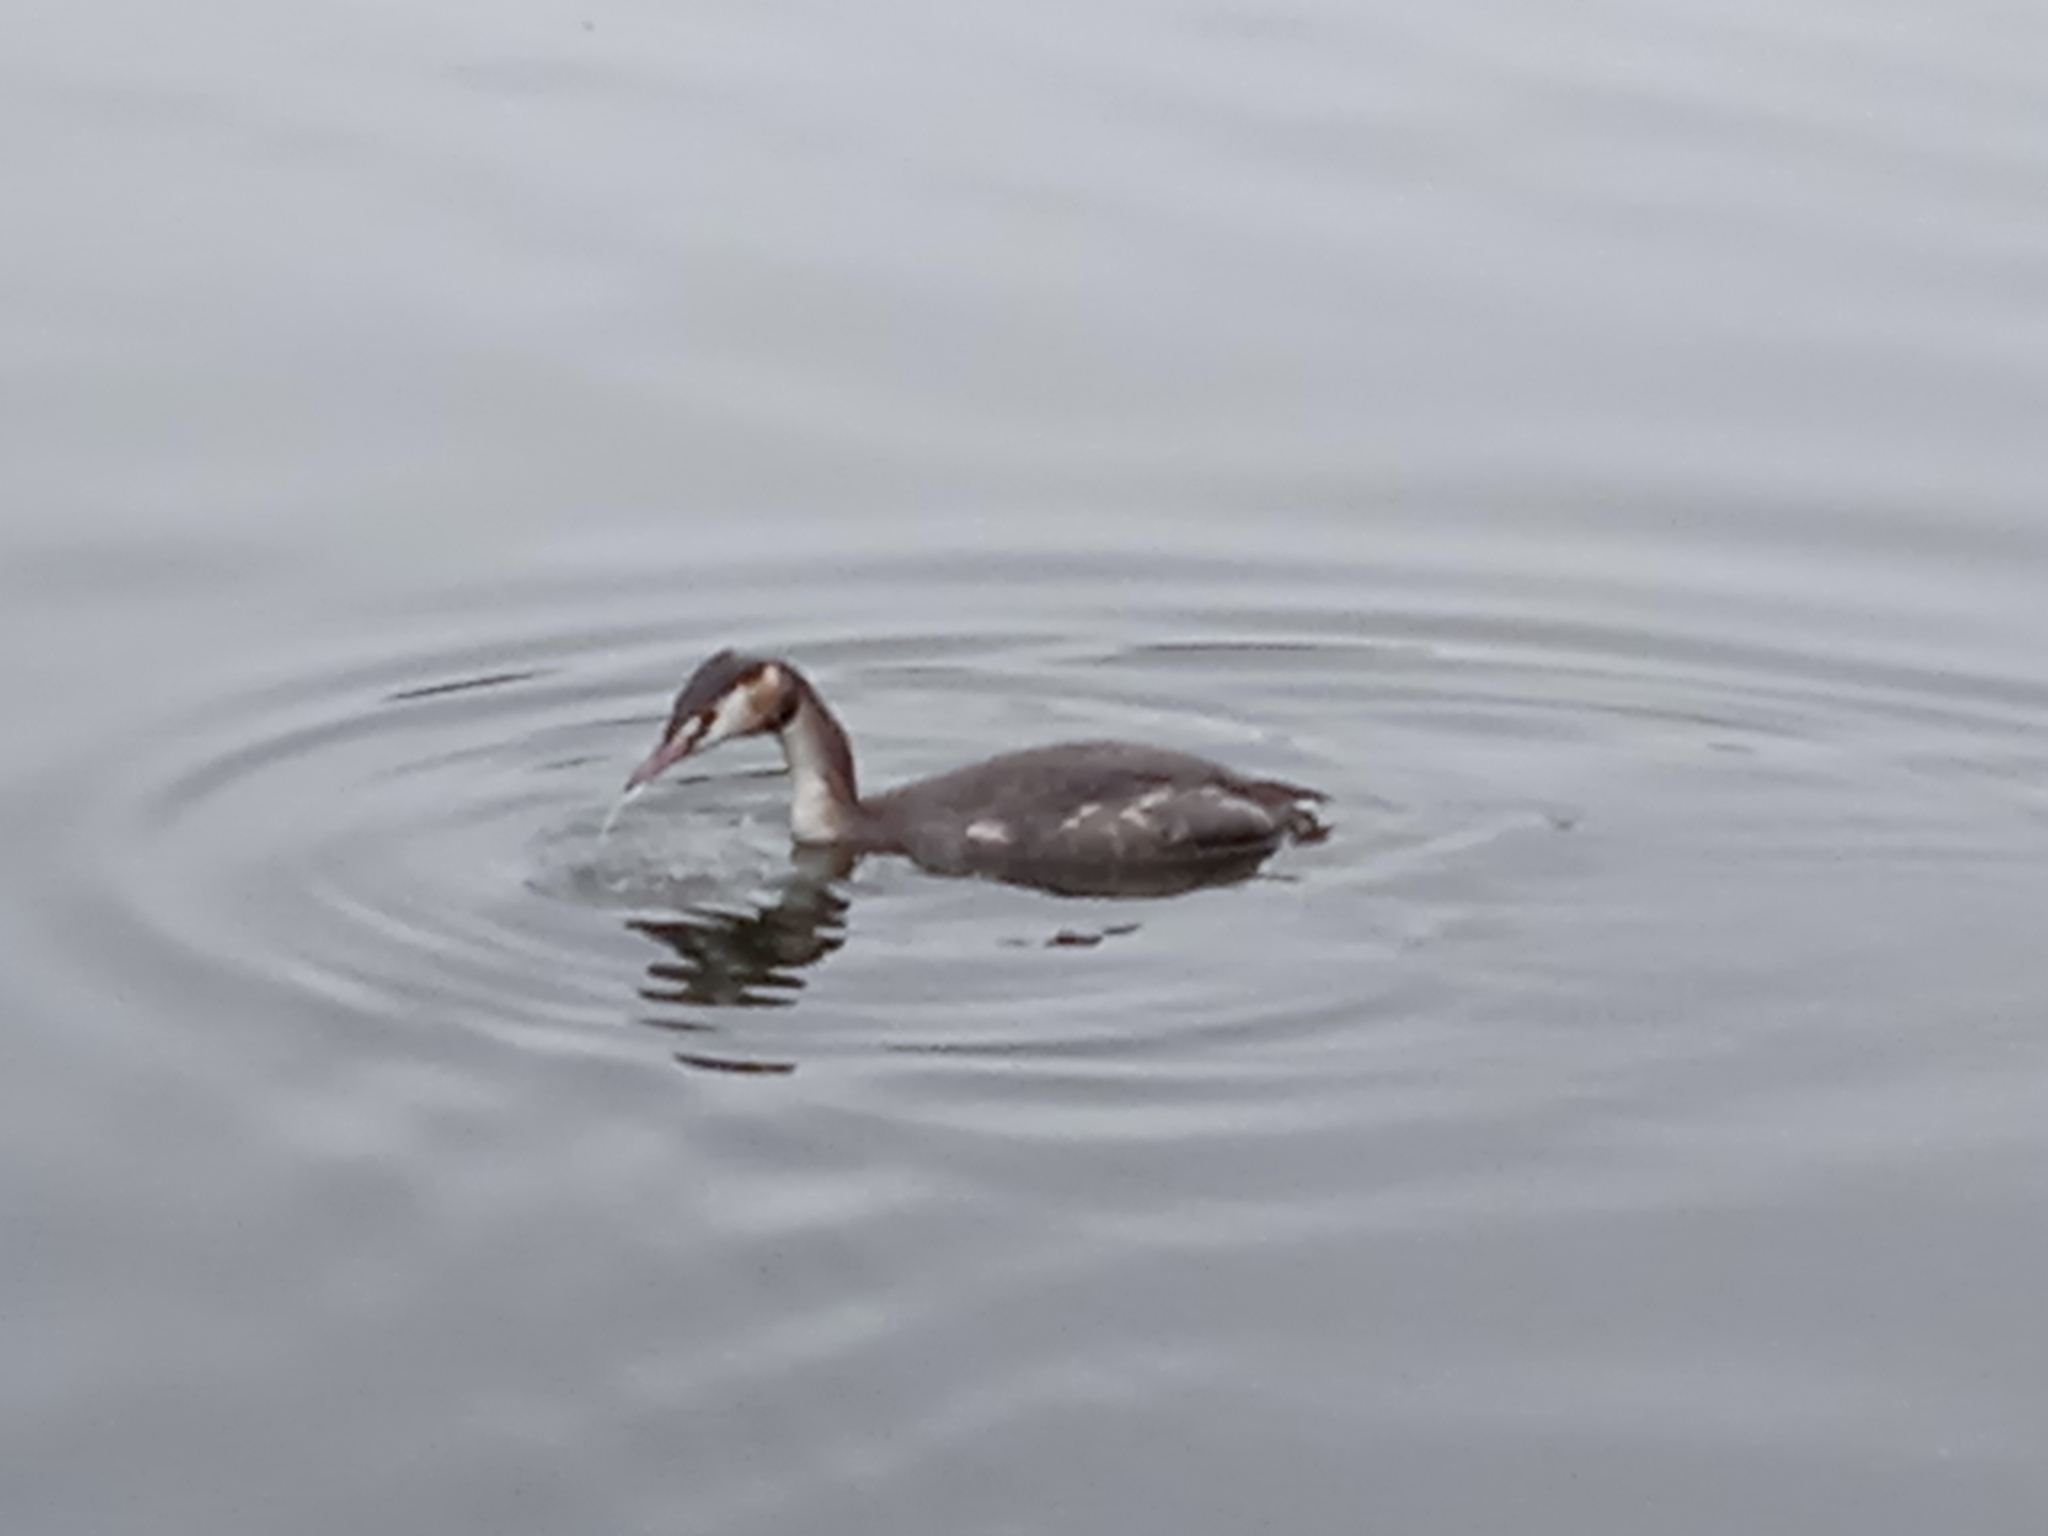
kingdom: Animalia
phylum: Chordata
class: Aves
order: Podicipediformes
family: Podicipedidae
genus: Podiceps
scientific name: Podiceps cristatus
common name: Great crested grebe
